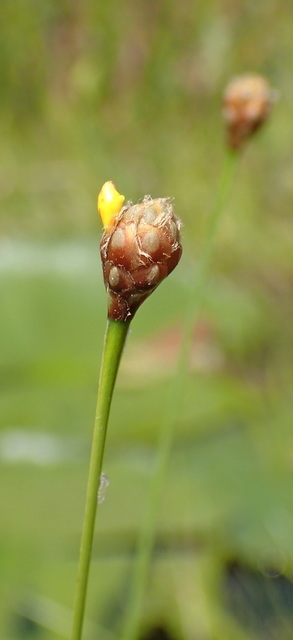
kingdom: Plantae
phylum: Tracheophyta
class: Liliopsida
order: Poales
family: Xyridaceae
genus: Xyris
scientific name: Xyris fimbriata
